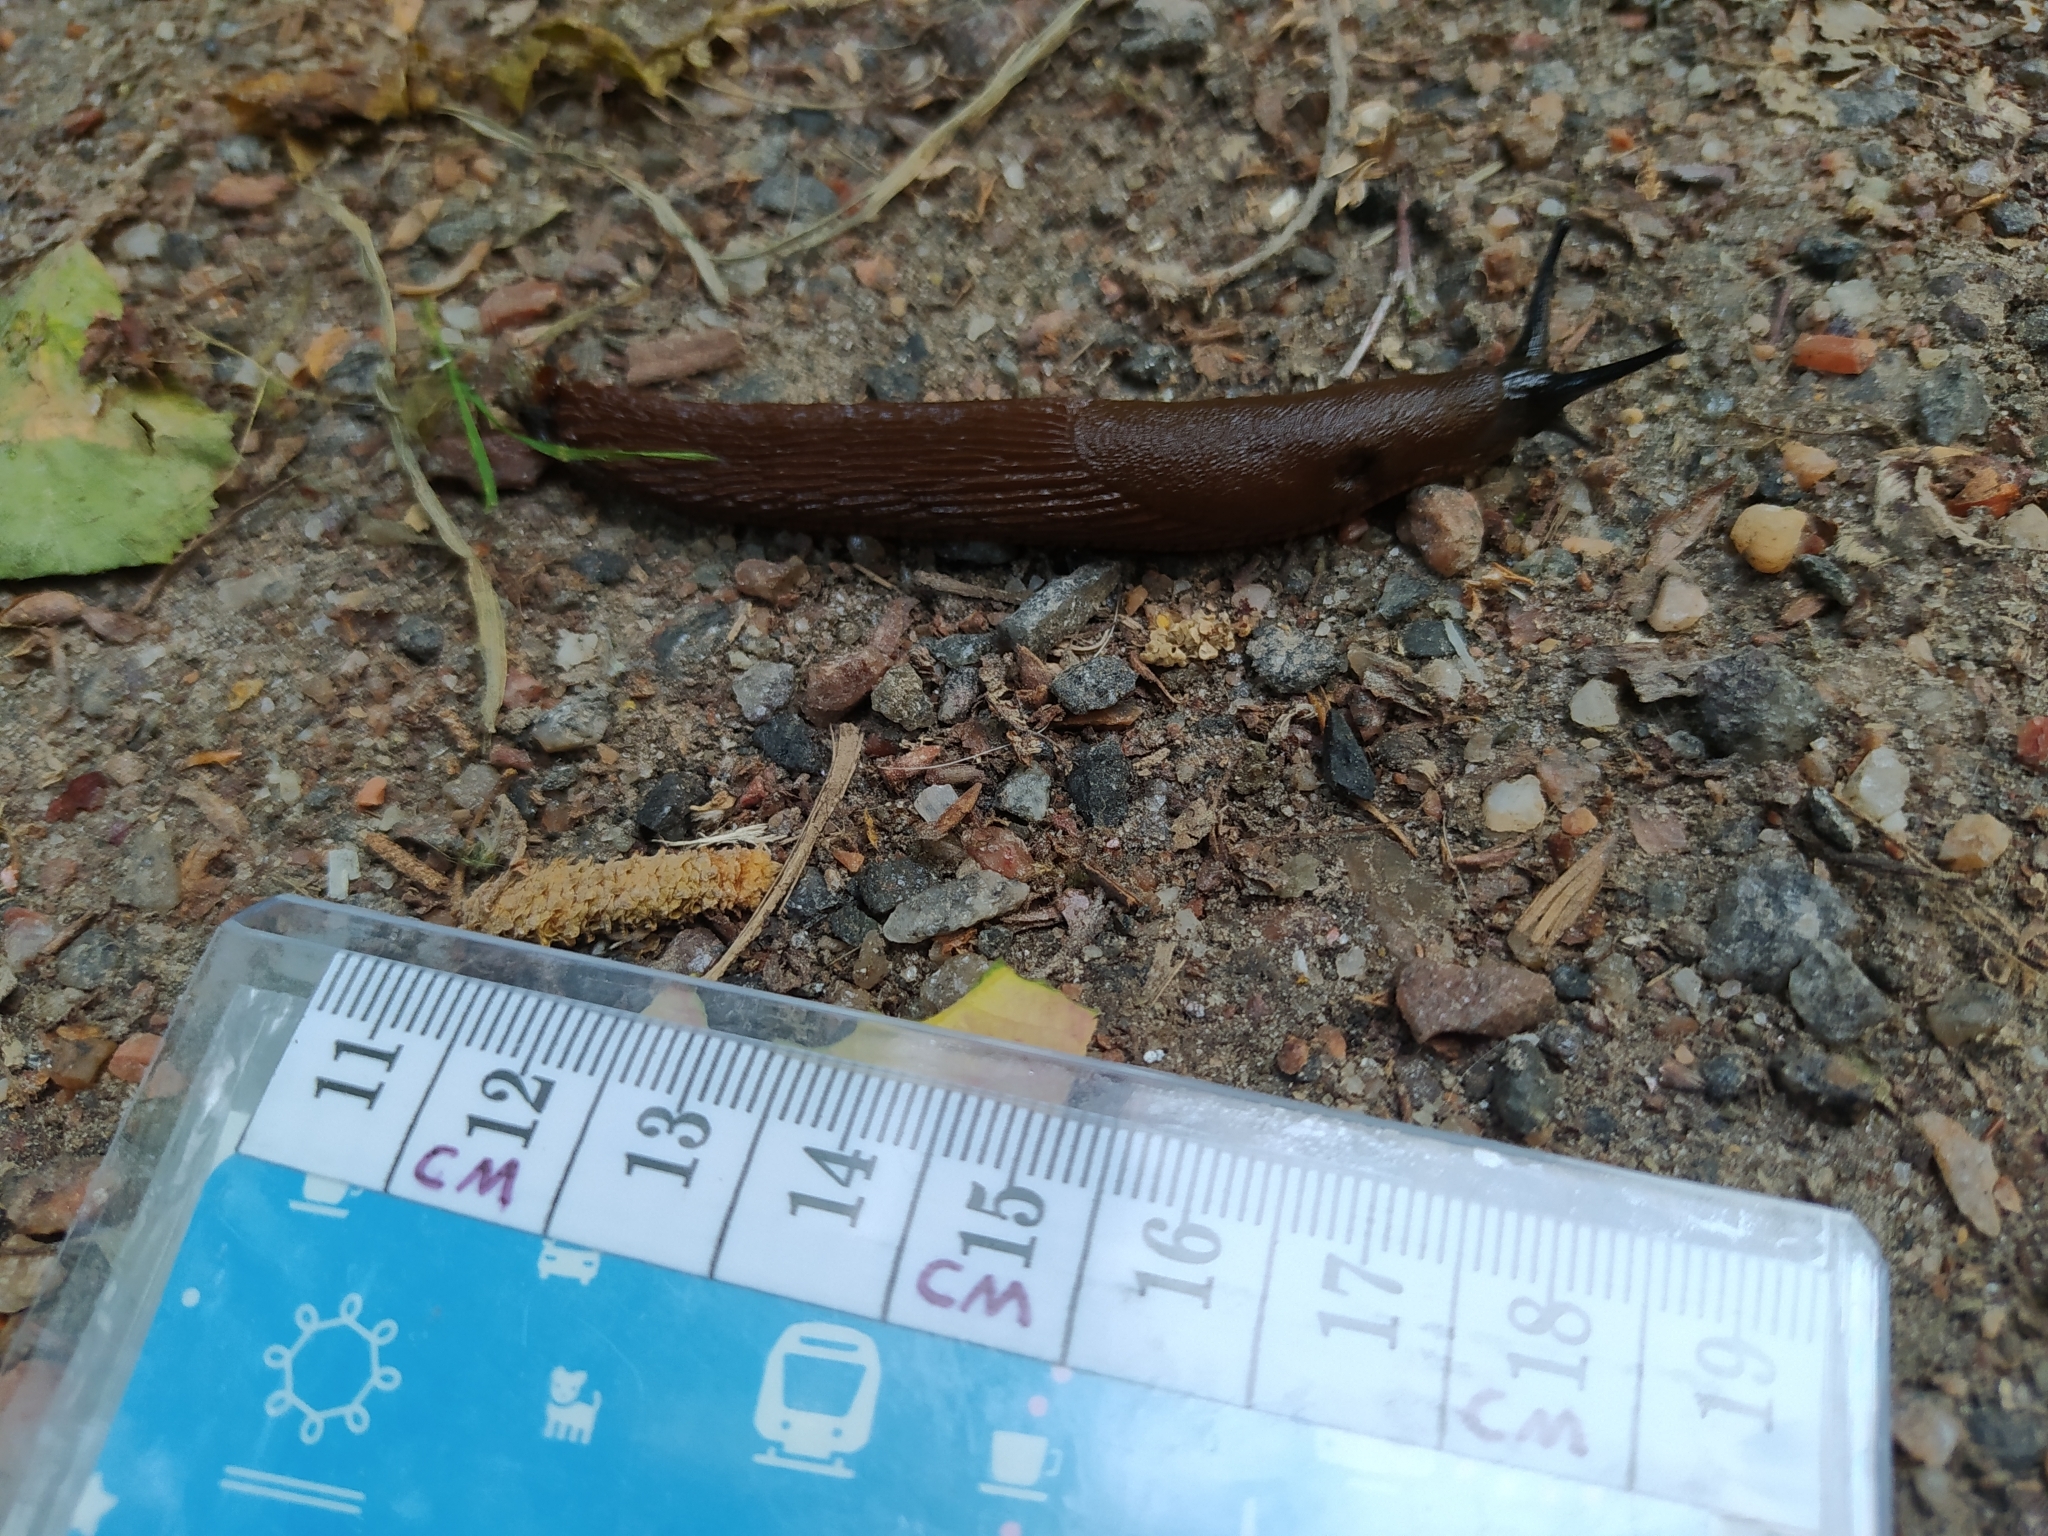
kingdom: Animalia
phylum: Mollusca
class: Gastropoda
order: Stylommatophora
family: Arionidae
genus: Arion
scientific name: Arion vulgaris
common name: Lusitanian slug
